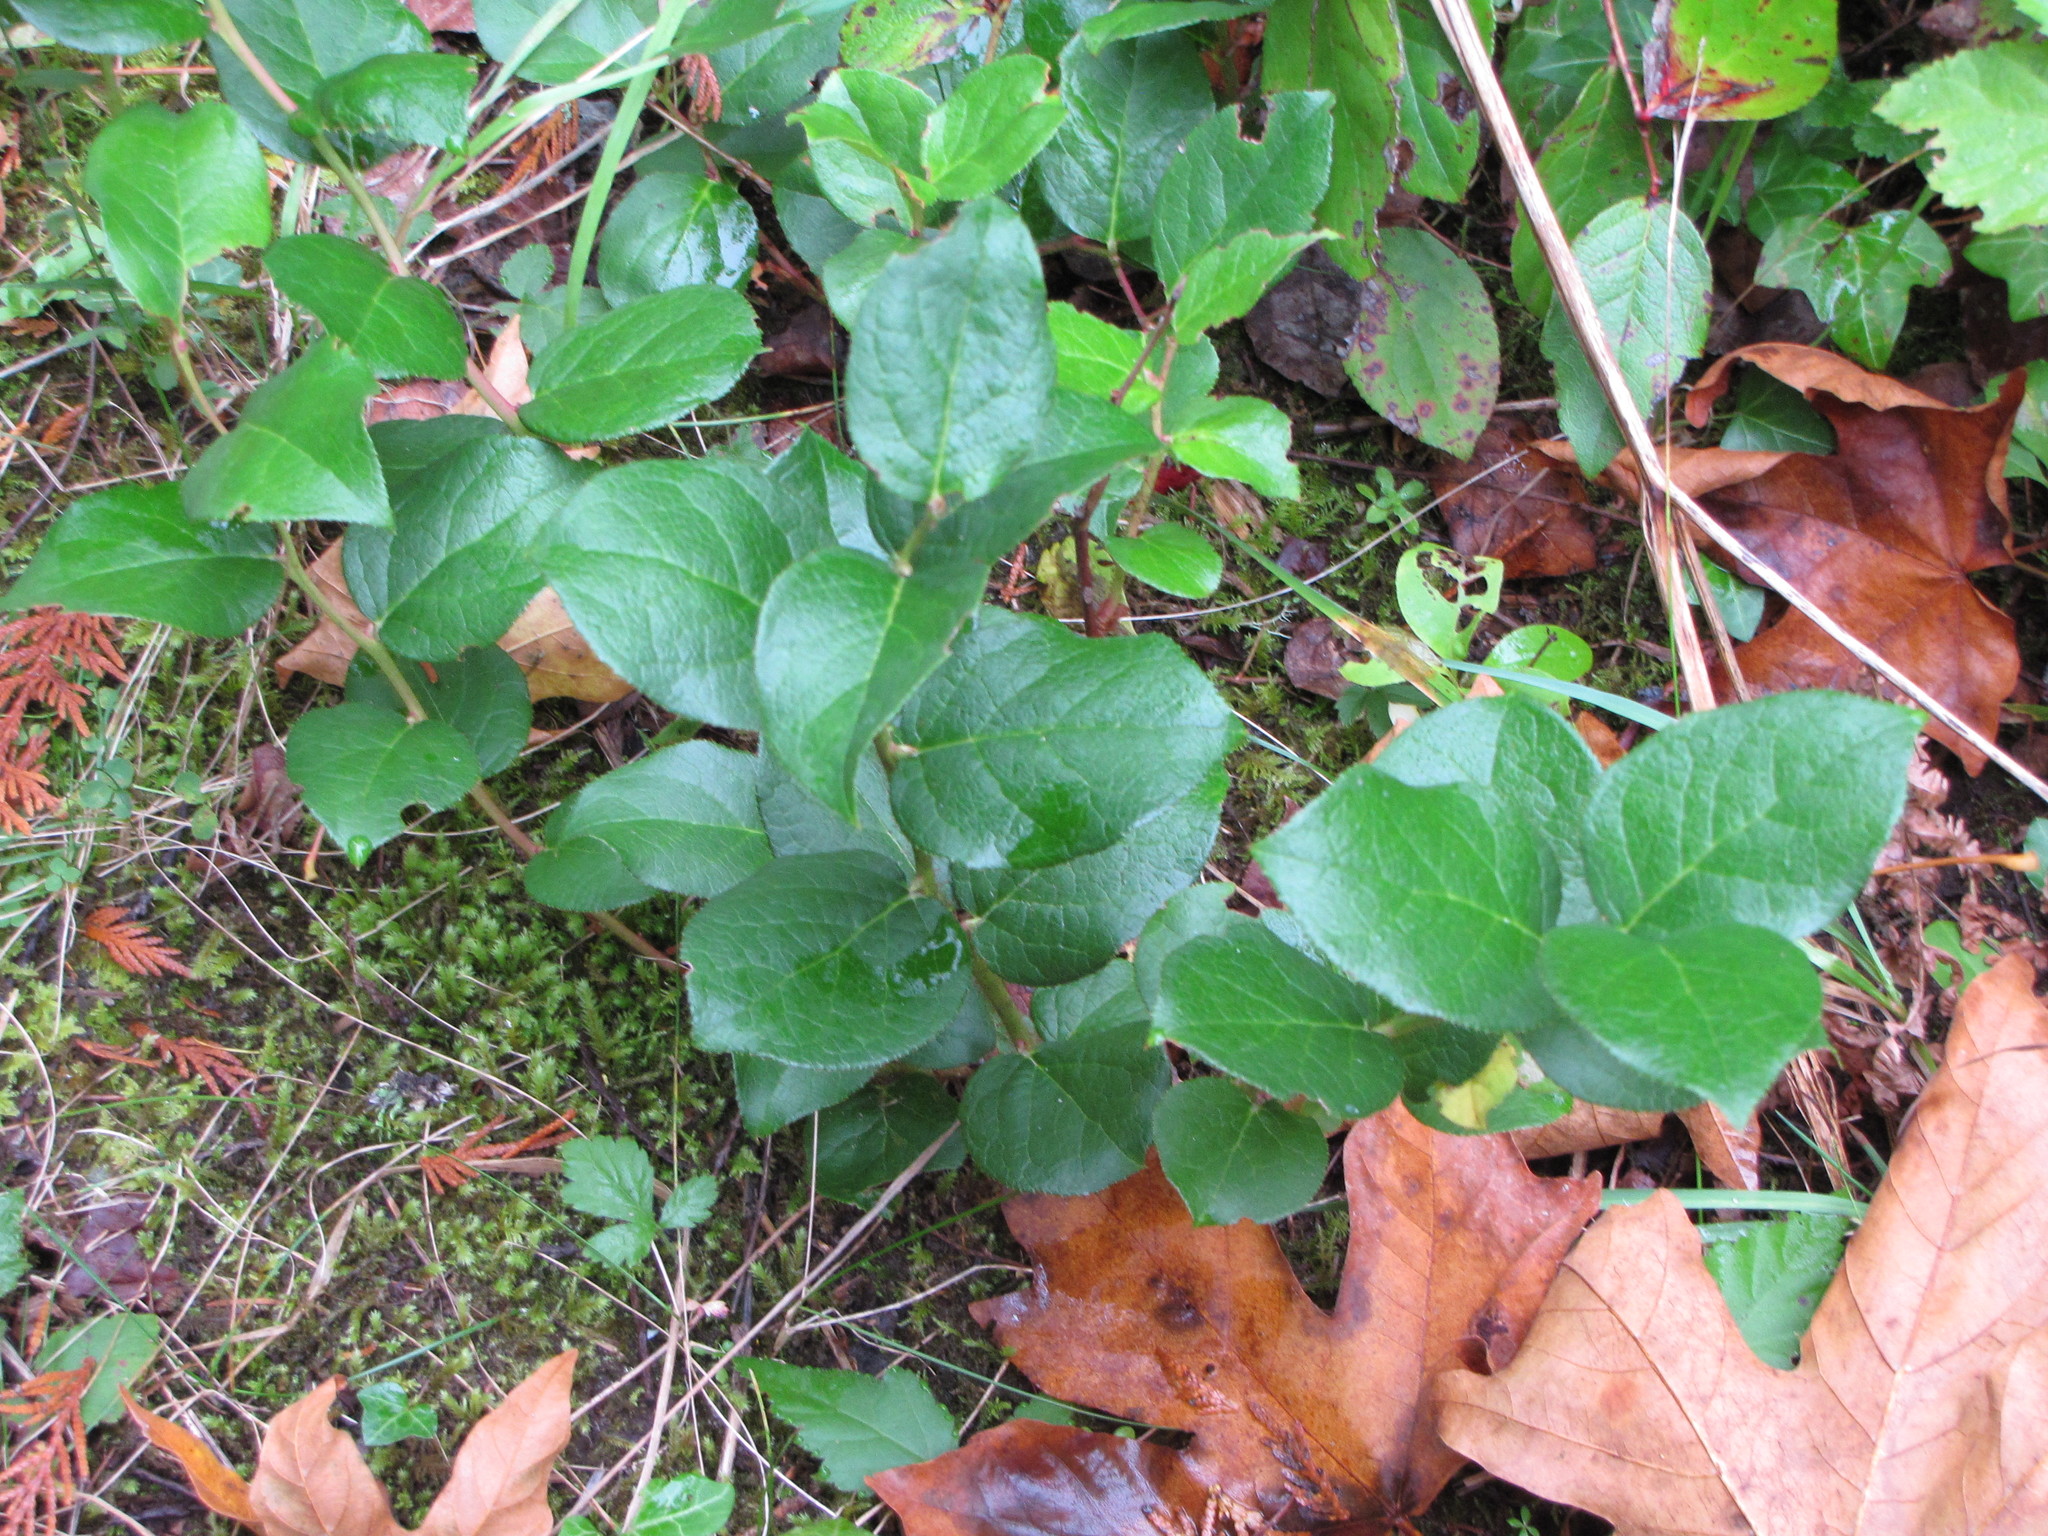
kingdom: Plantae
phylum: Tracheophyta
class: Magnoliopsida
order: Ericales
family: Ericaceae
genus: Gaultheria
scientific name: Gaultheria shallon
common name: Shallon
